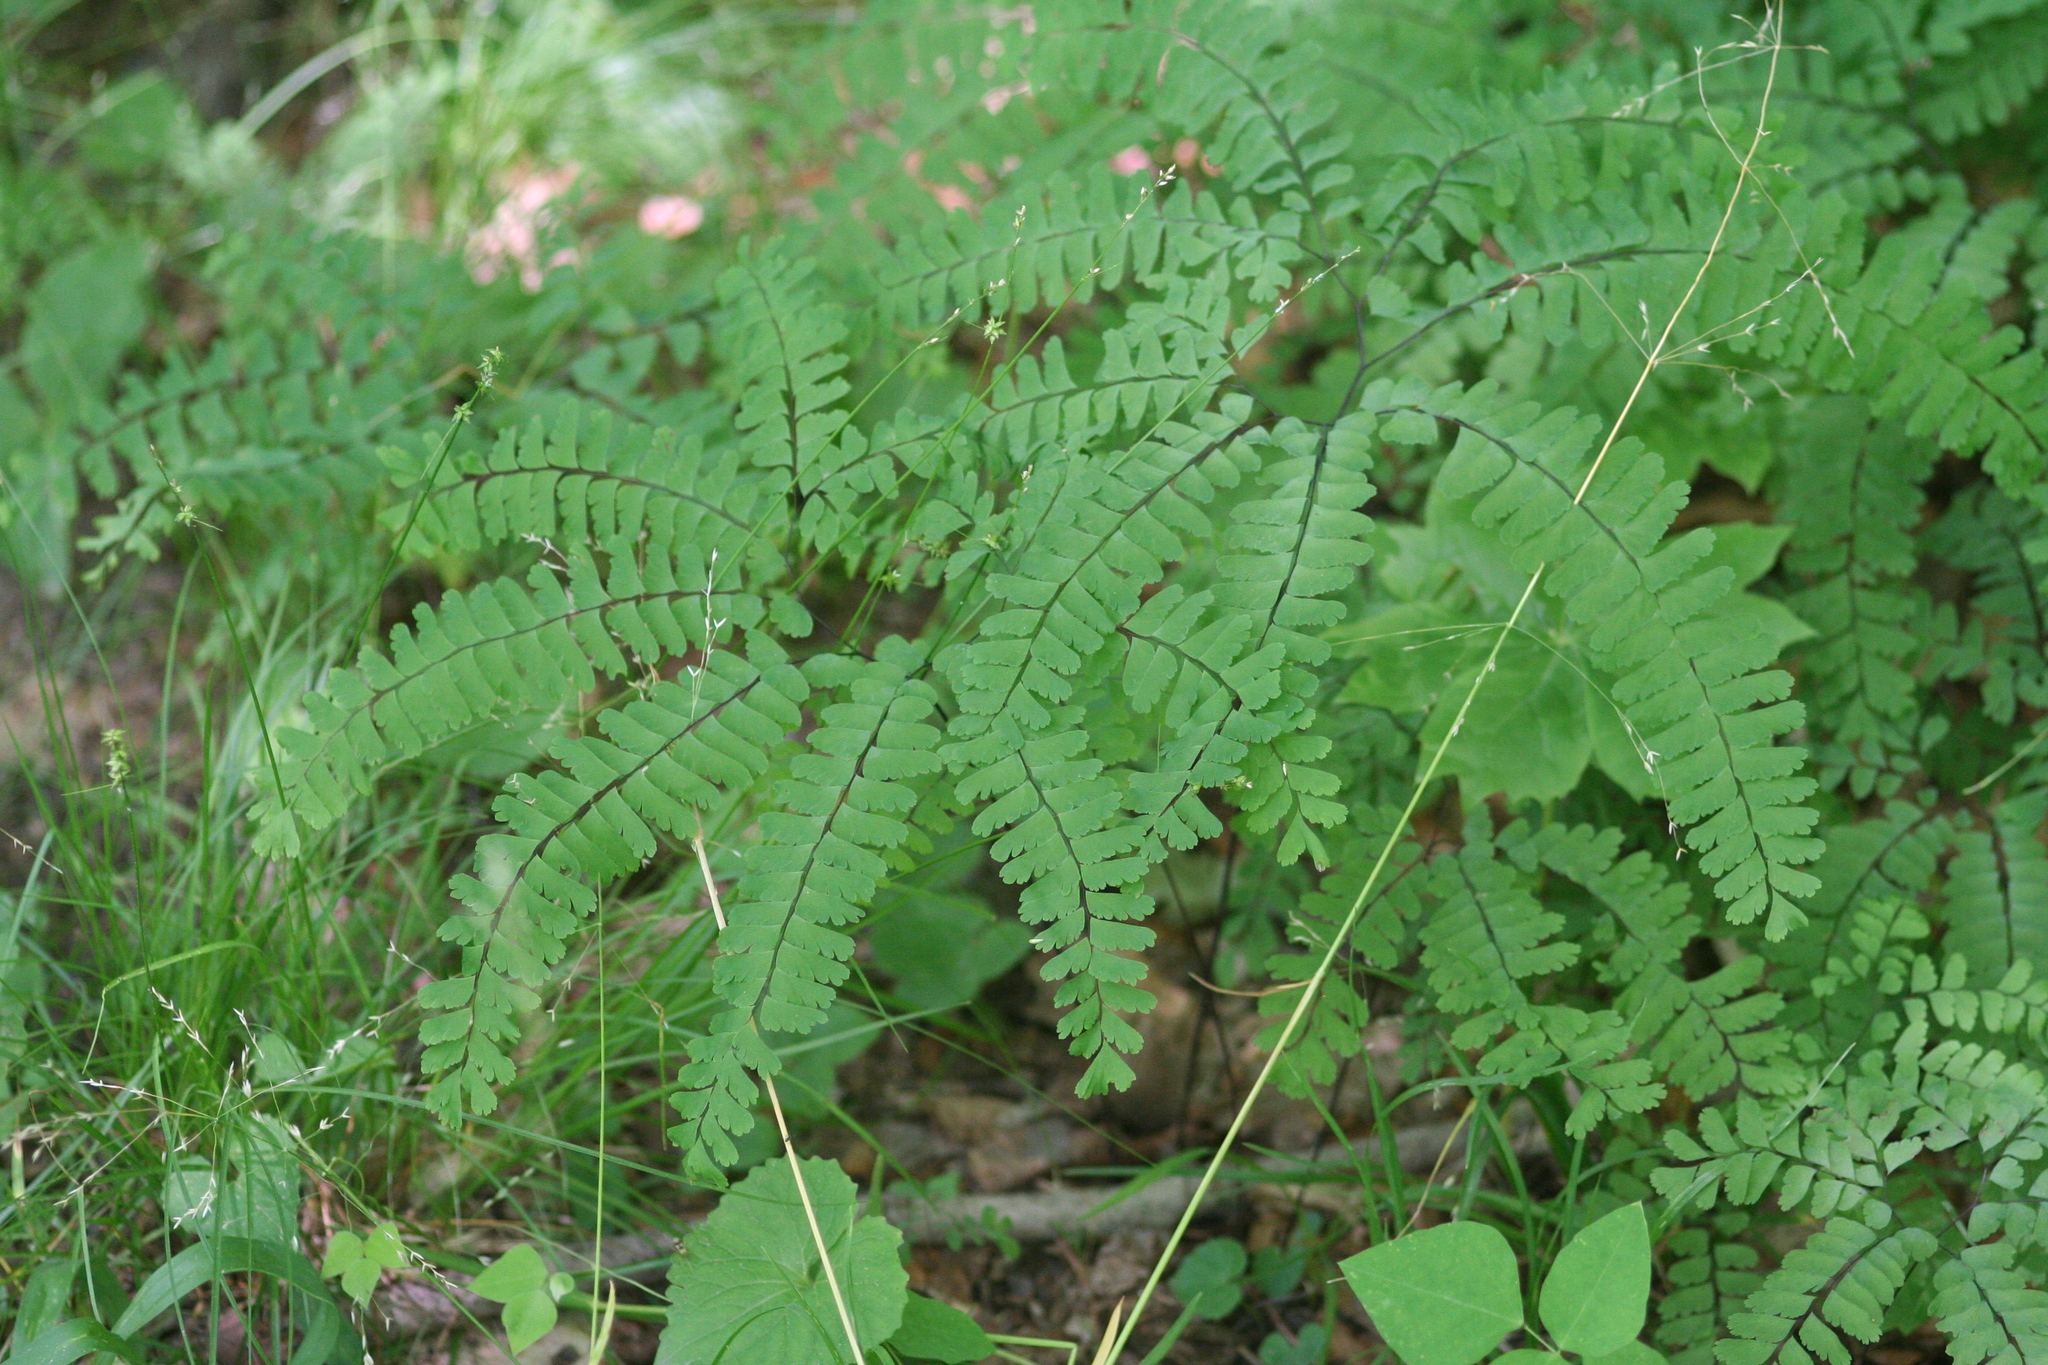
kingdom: Plantae
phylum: Tracheophyta
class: Polypodiopsida
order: Polypodiales
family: Pteridaceae
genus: Adiantum
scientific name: Adiantum pedatum
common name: Five-finger fern
